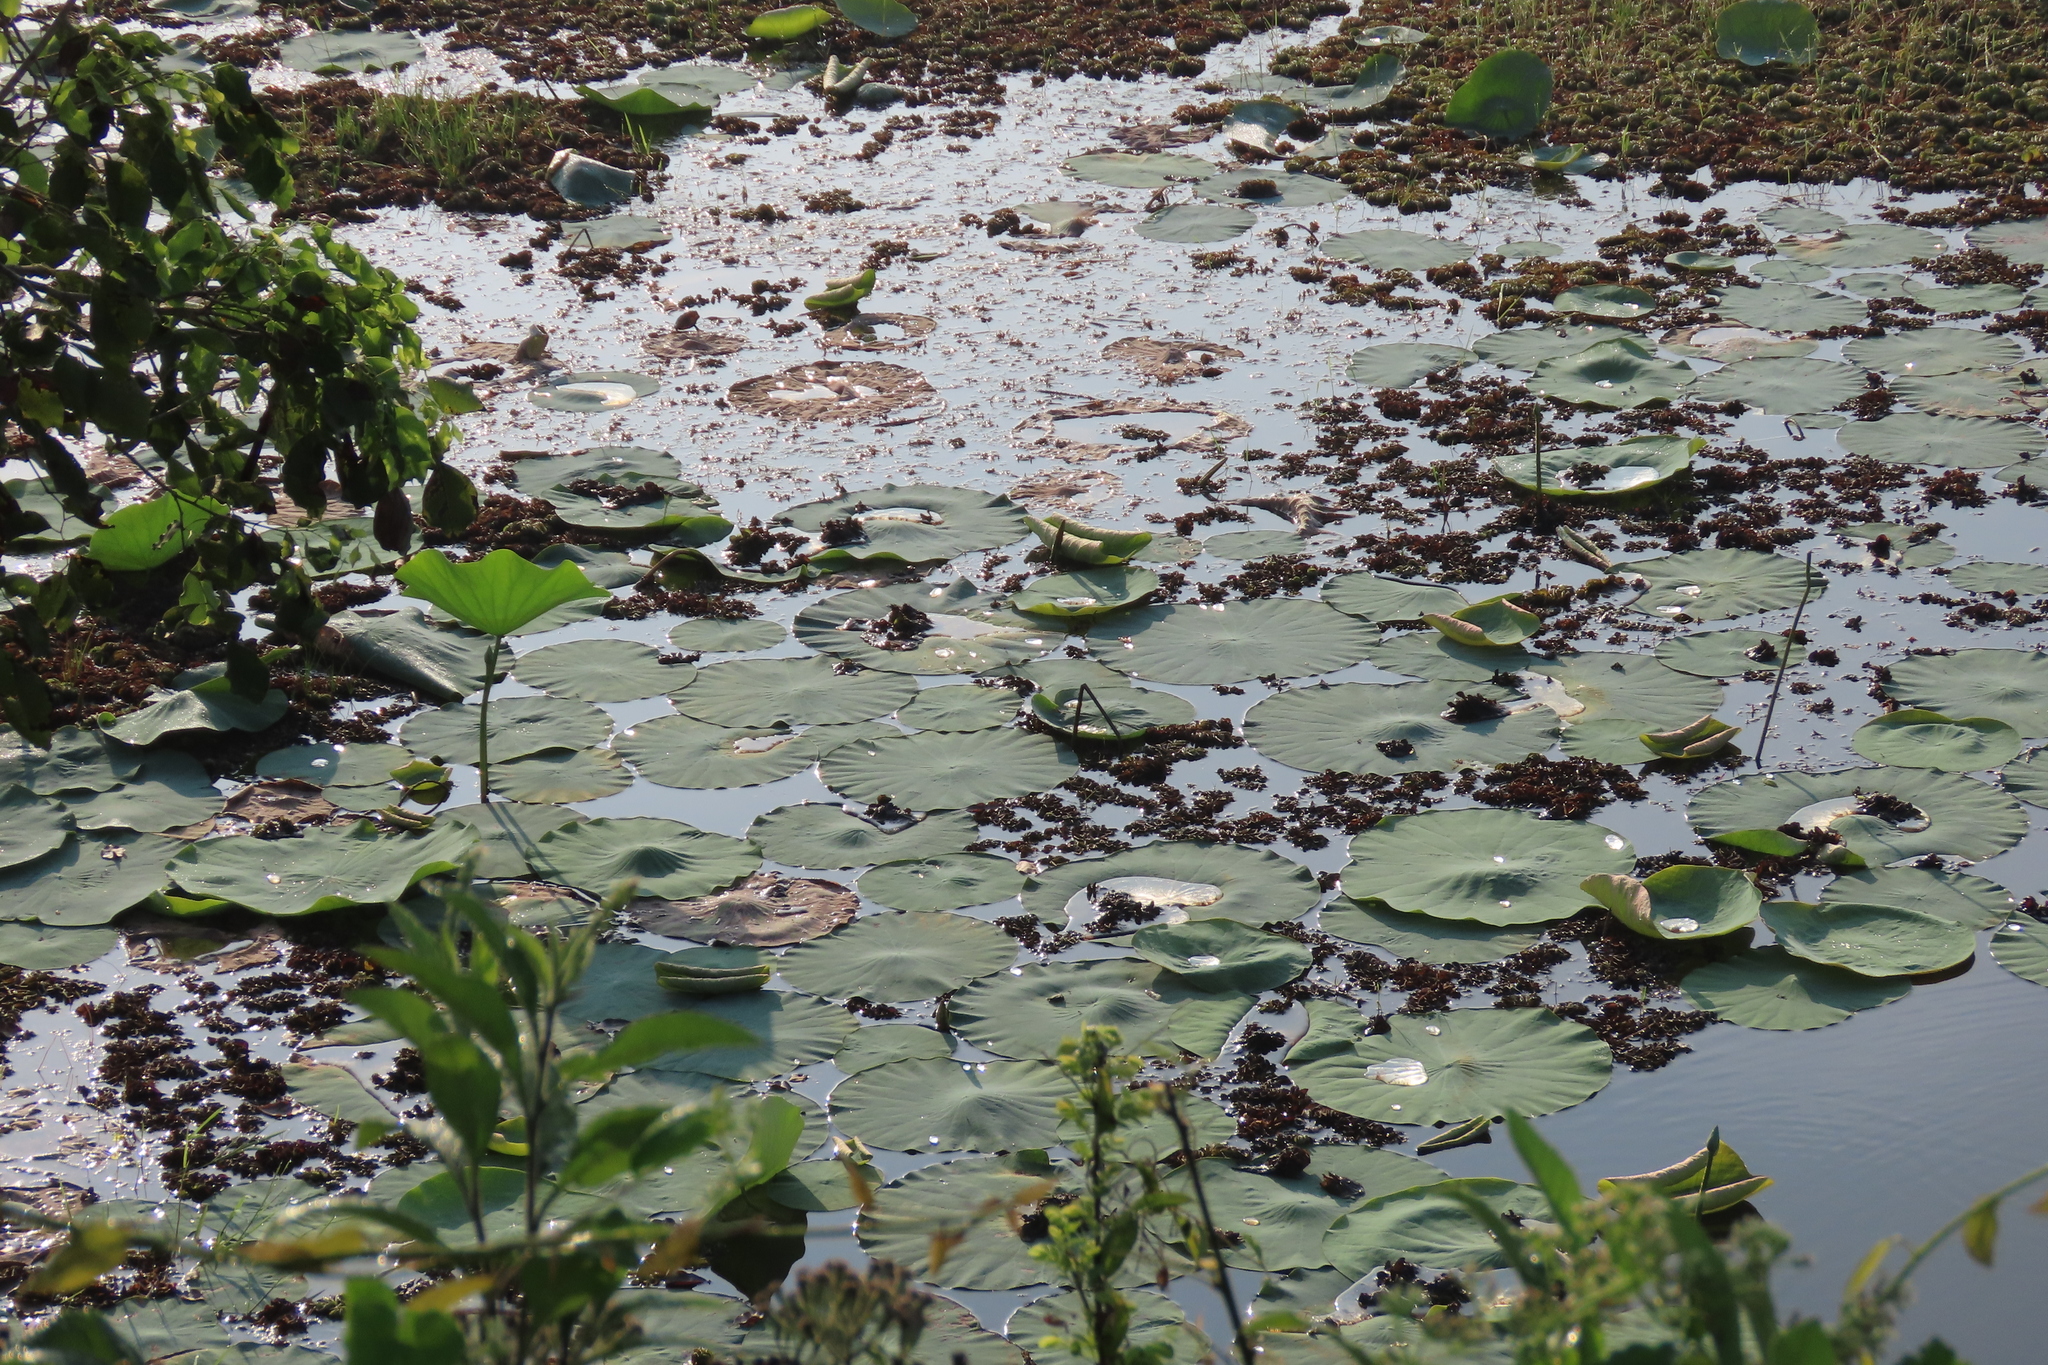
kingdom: Plantae
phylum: Tracheophyta
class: Magnoliopsida
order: Proteales
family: Nelumbonaceae
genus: Nelumbo
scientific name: Nelumbo nucifera
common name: Sacred lotus
